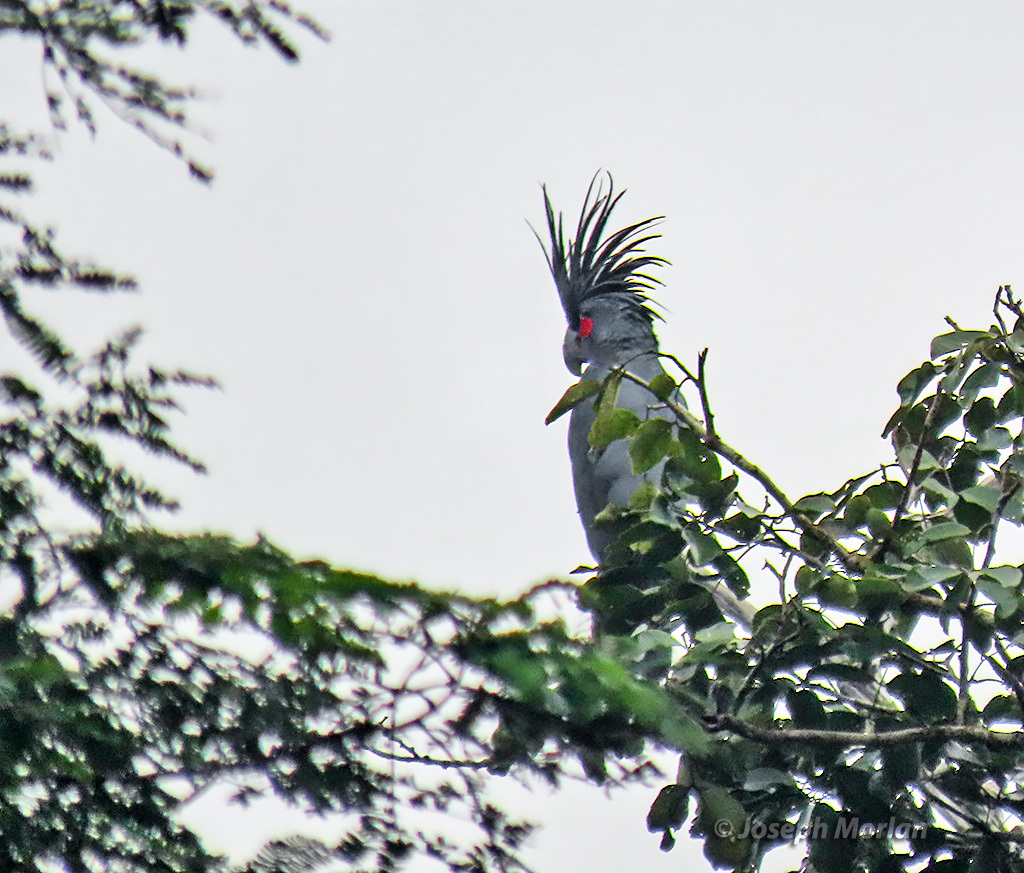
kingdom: Animalia
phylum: Chordata
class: Aves
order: Psittaciformes
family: Psittacidae
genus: Probosciger
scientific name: Probosciger aterrimus
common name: Palm cockatoo
